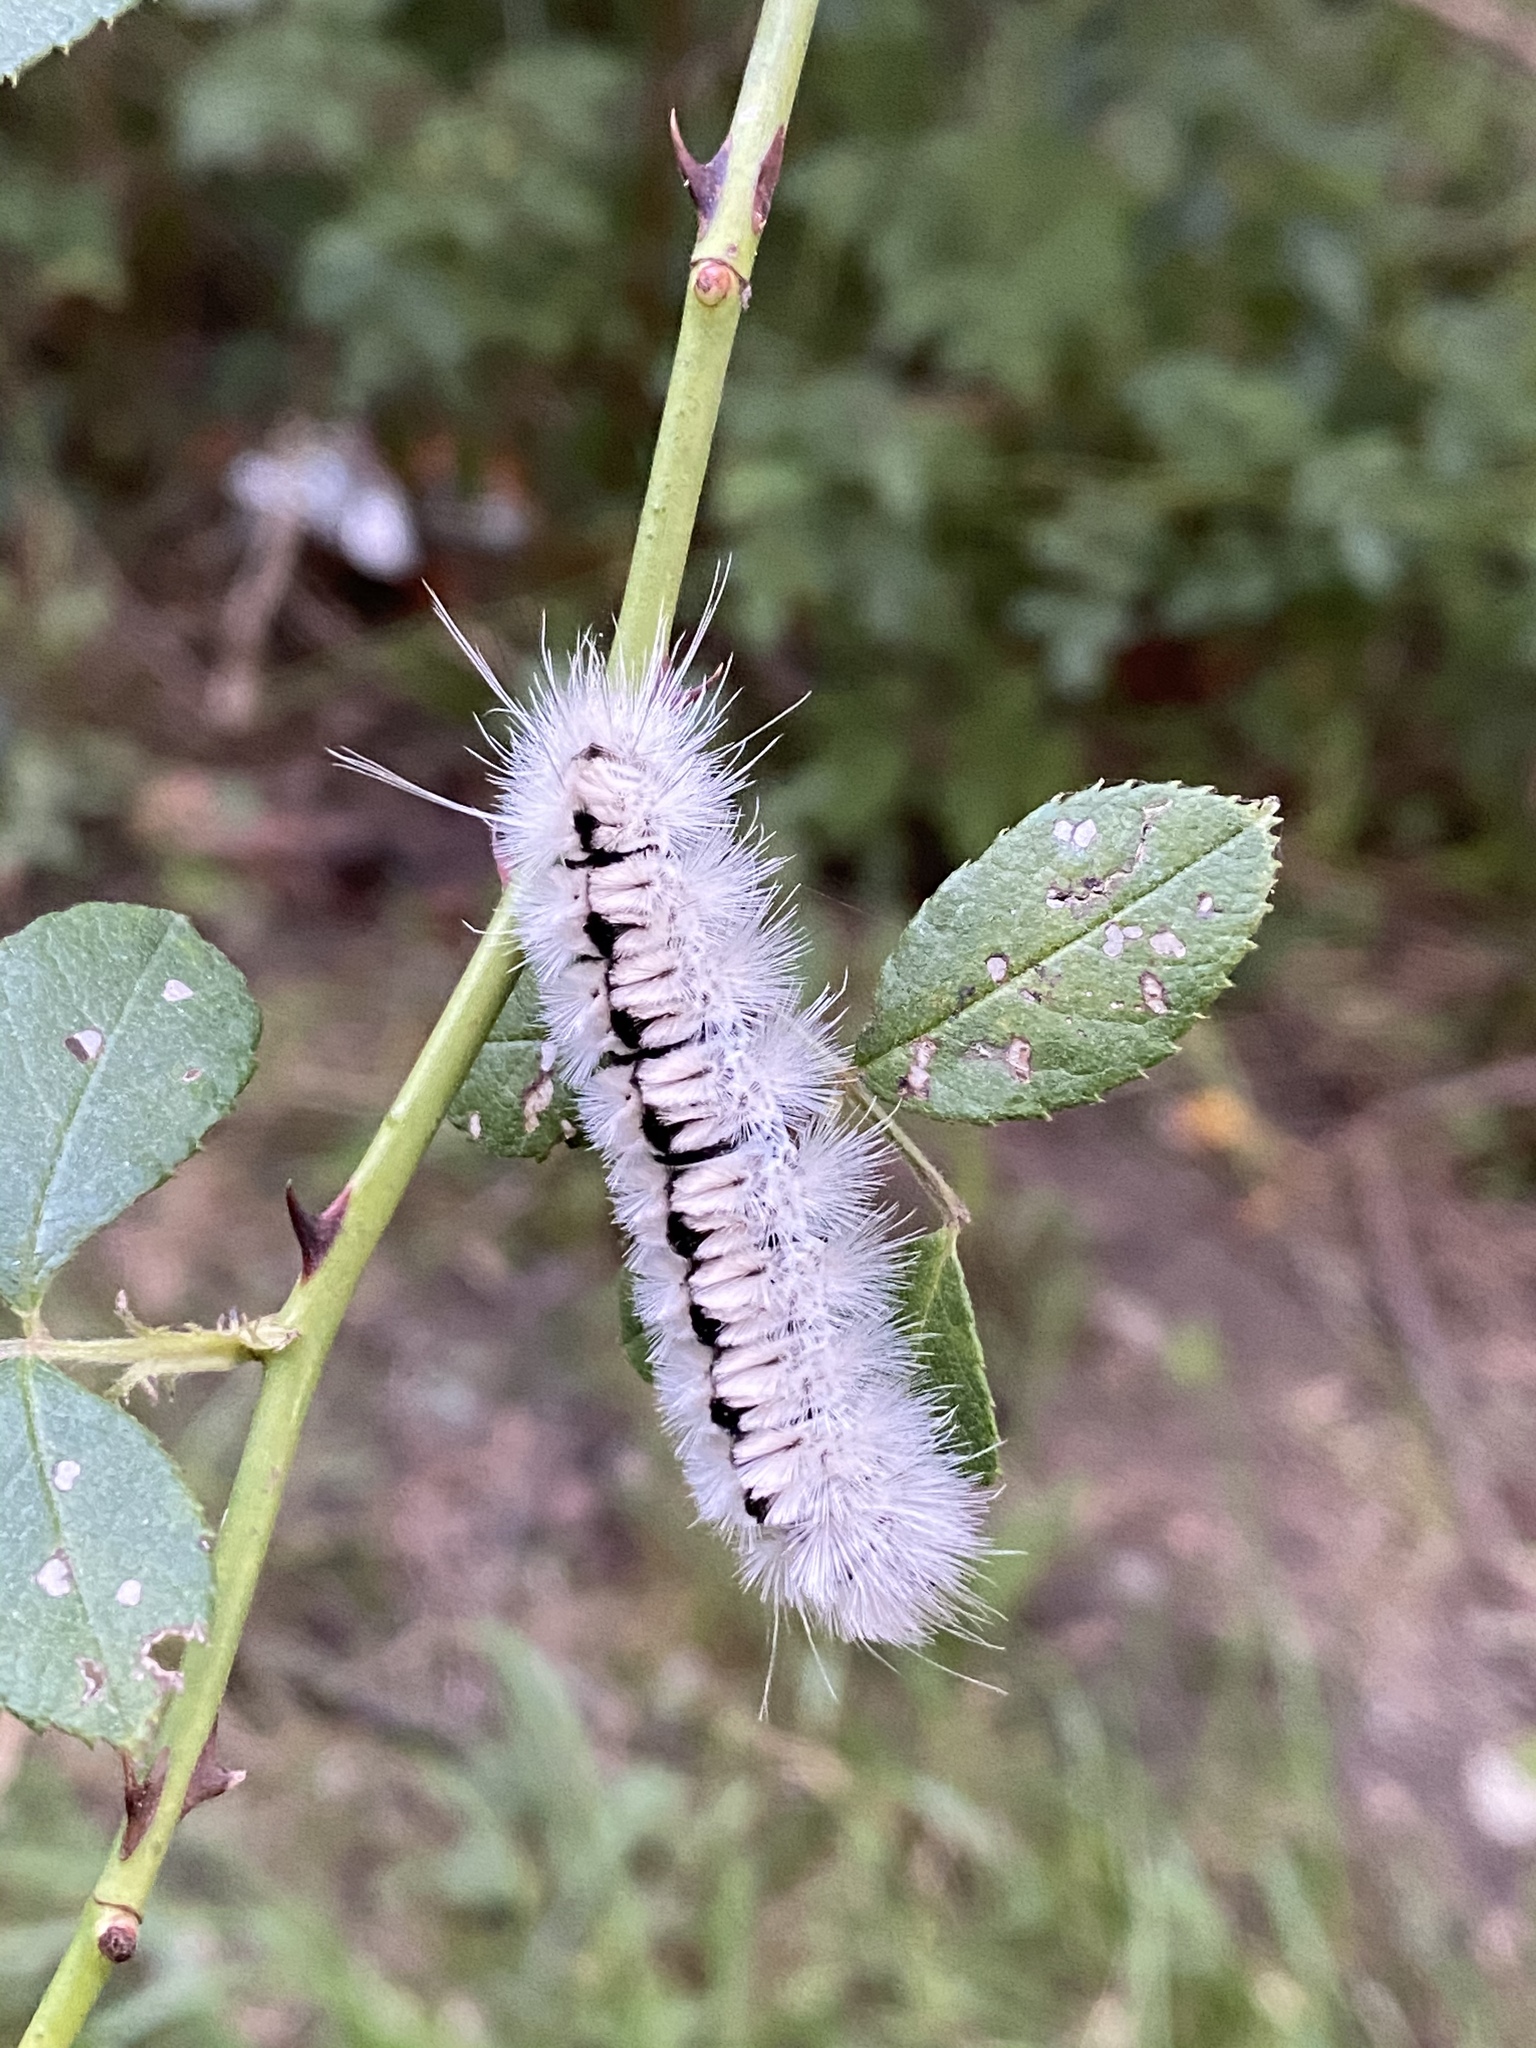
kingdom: Animalia
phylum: Arthropoda
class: Insecta
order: Lepidoptera
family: Erebidae
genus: Lophocampa
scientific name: Lophocampa caryae
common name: Hickory tussock moth
